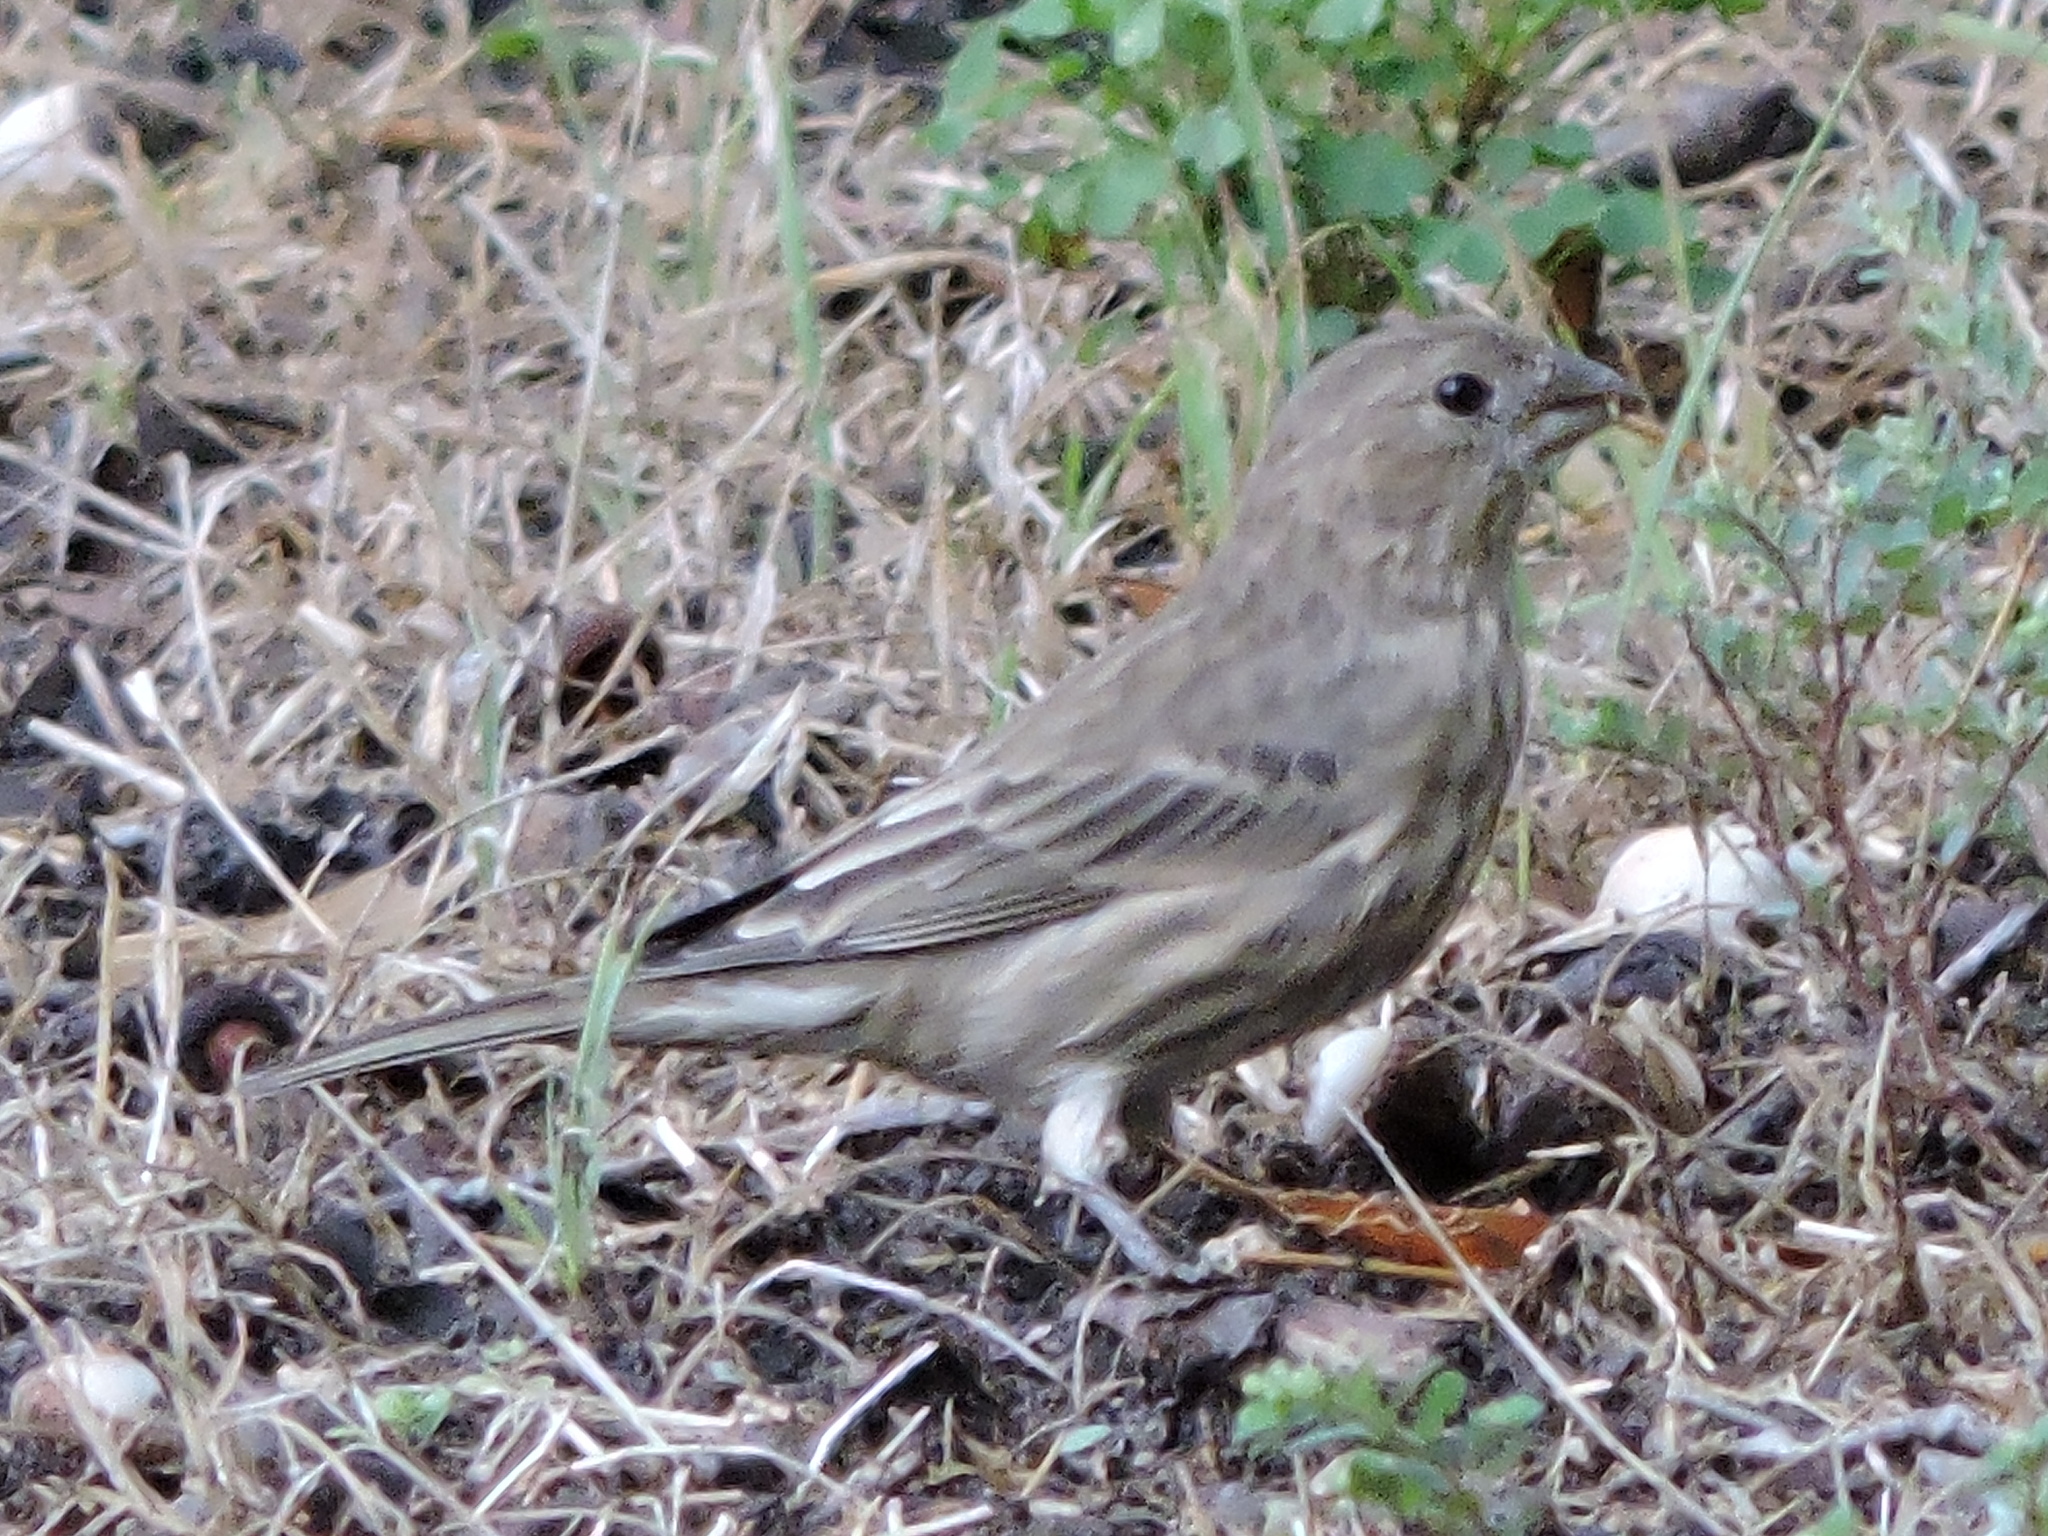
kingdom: Animalia
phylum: Chordata
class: Aves
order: Passeriformes
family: Fringillidae
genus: Haemorhous
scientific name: Haemorhous mexicanus
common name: House finch
